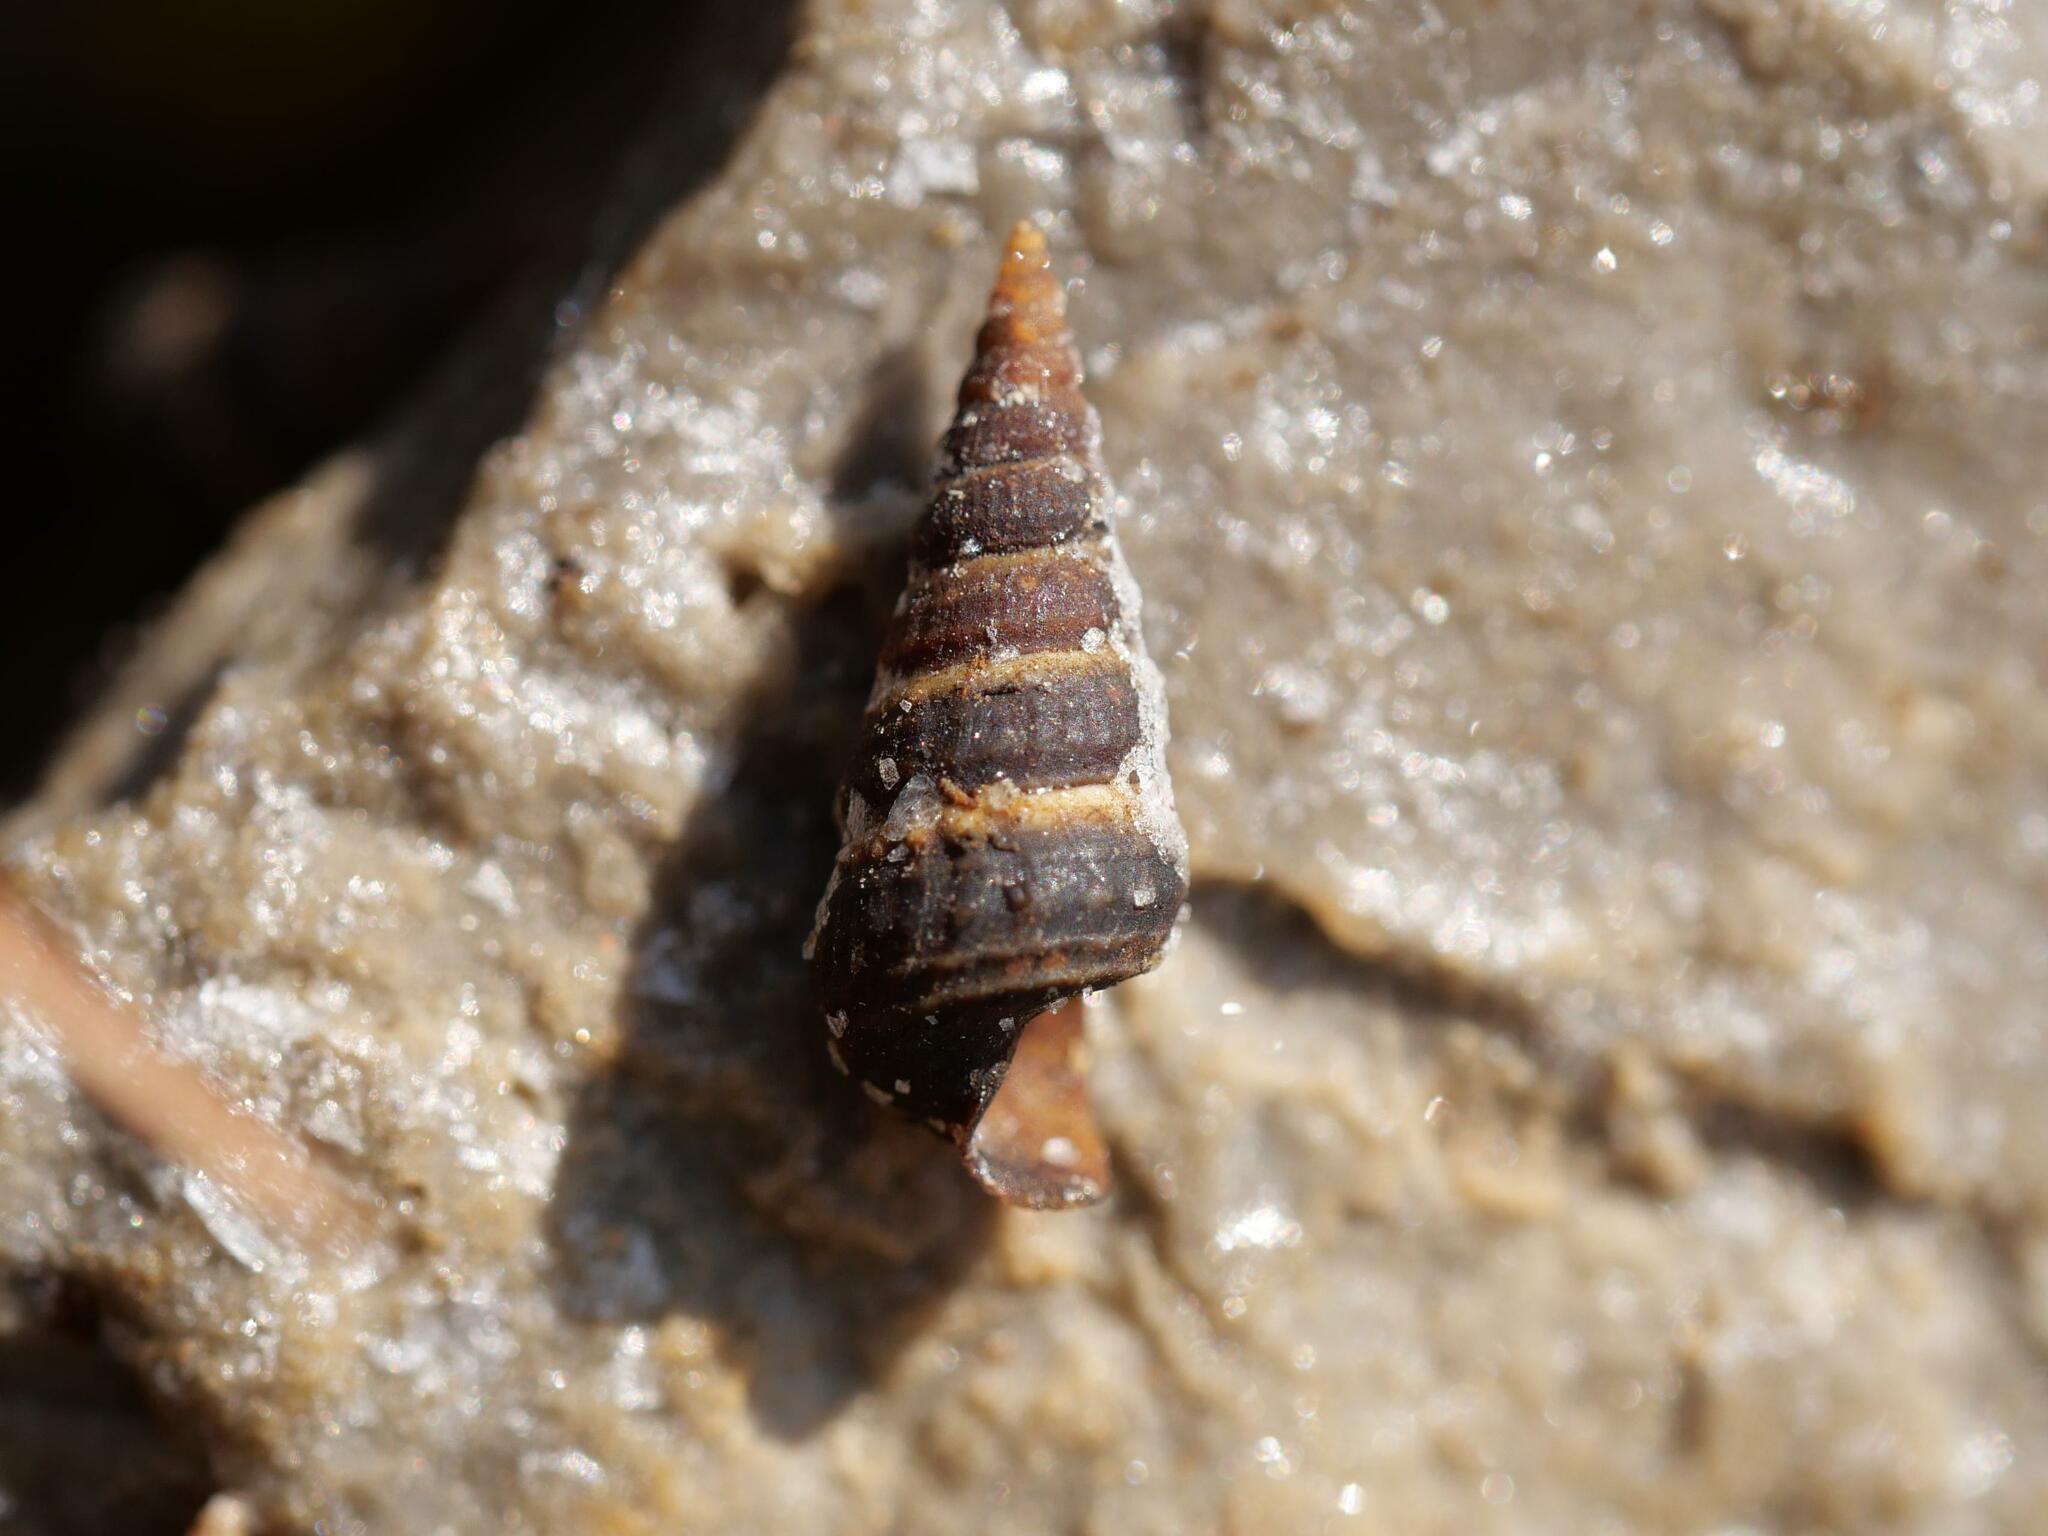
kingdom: Animalia
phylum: Mollusca
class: Gastropoda
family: Potamididae
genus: Pirenella
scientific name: Pirenella conica
